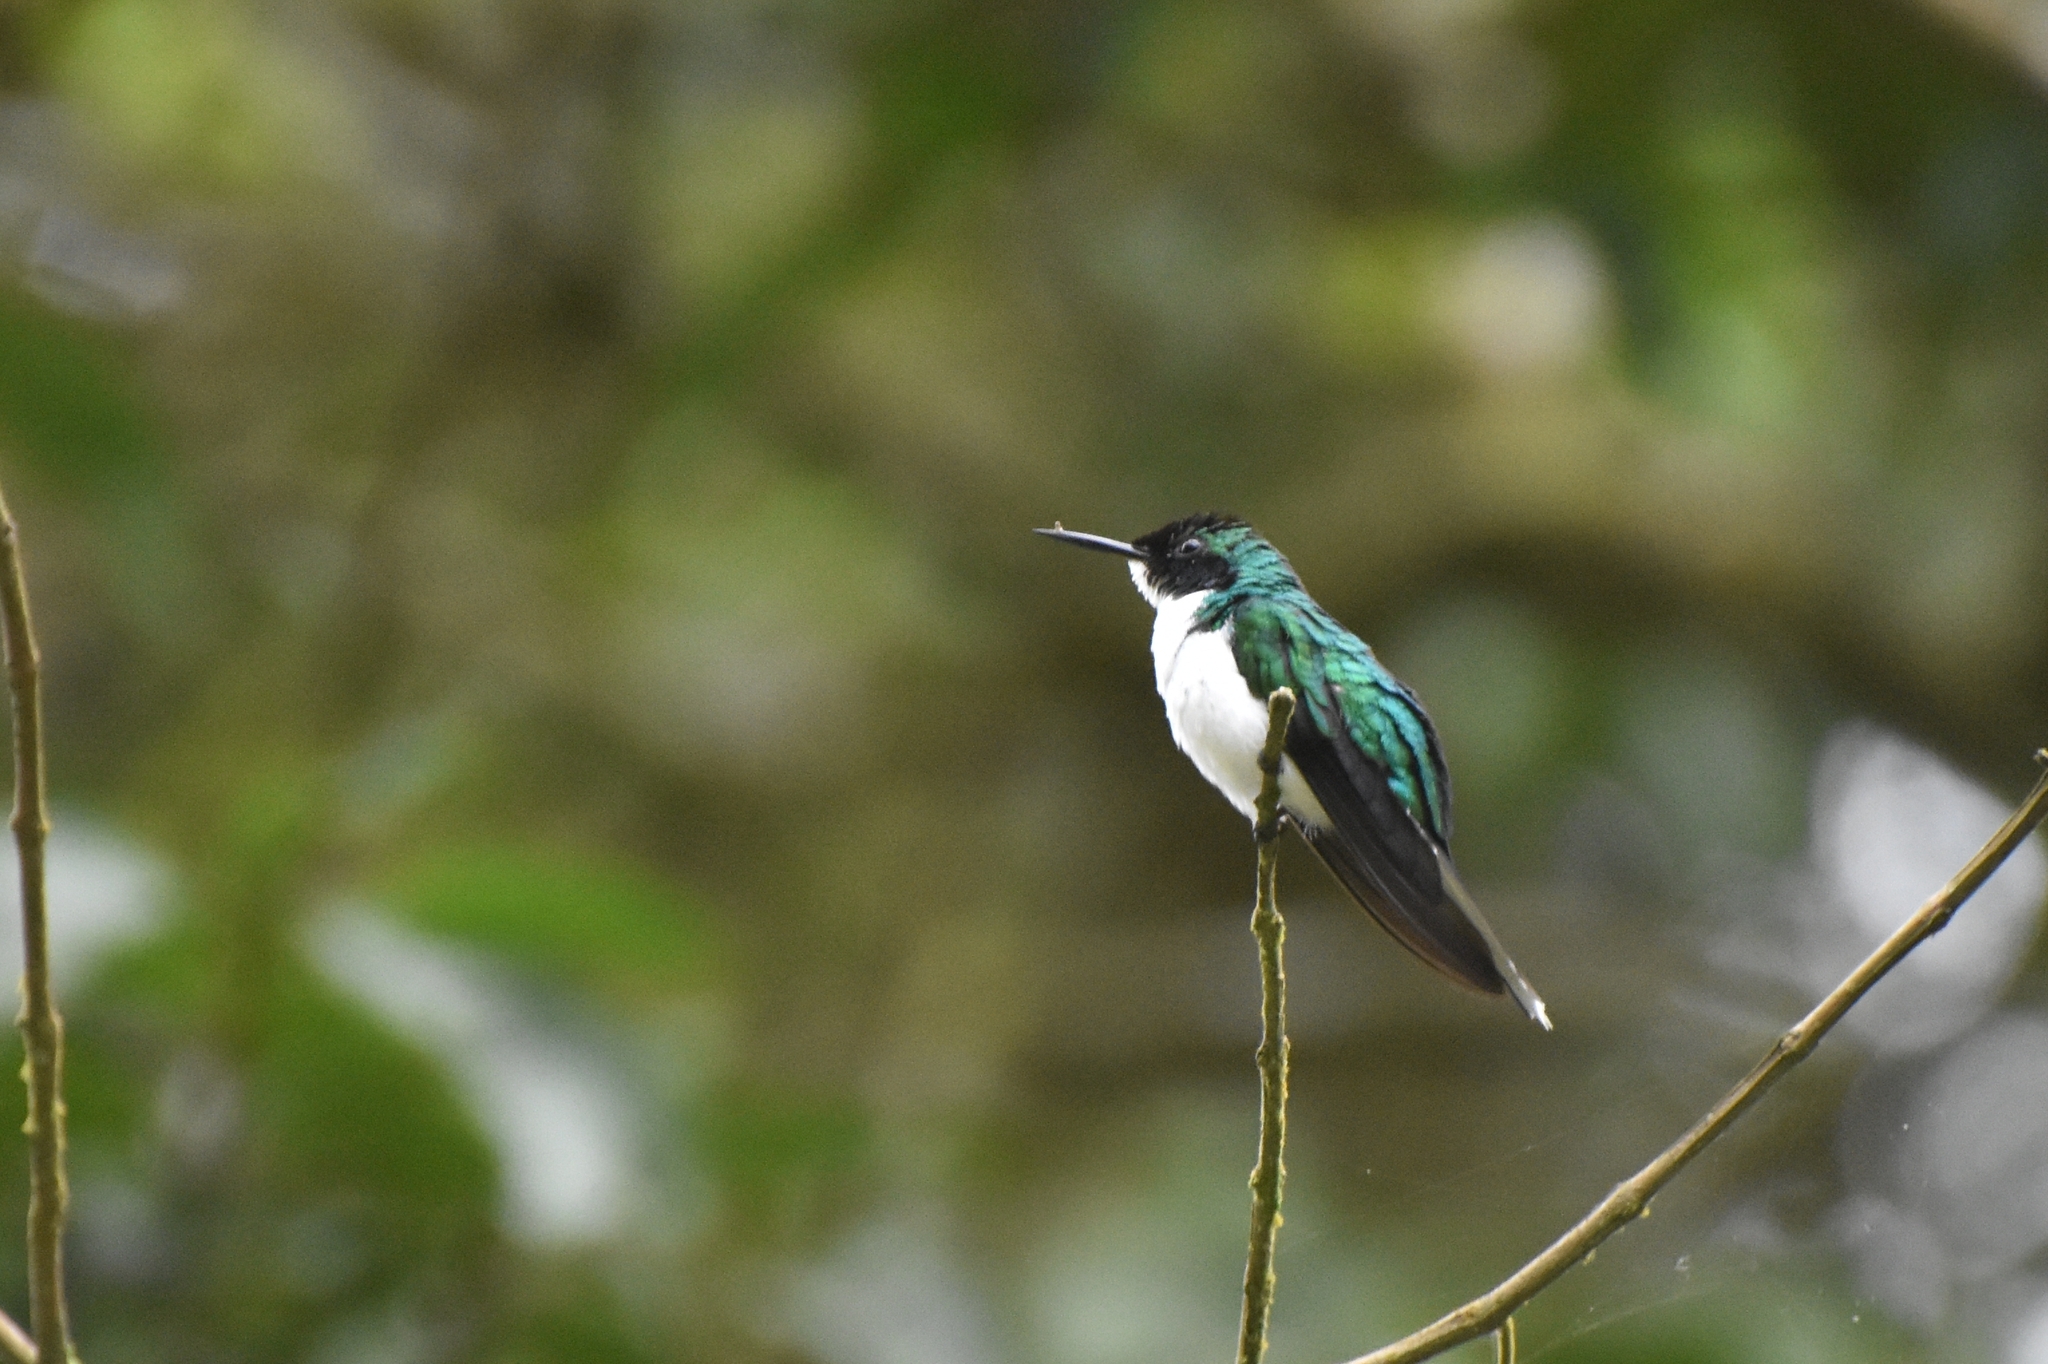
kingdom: Animalia
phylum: Chordata
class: Aves
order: Apodiformes
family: Trochilidae
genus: Heliothryx
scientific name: Heliothryx barroti
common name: Purple-crowned fairy
